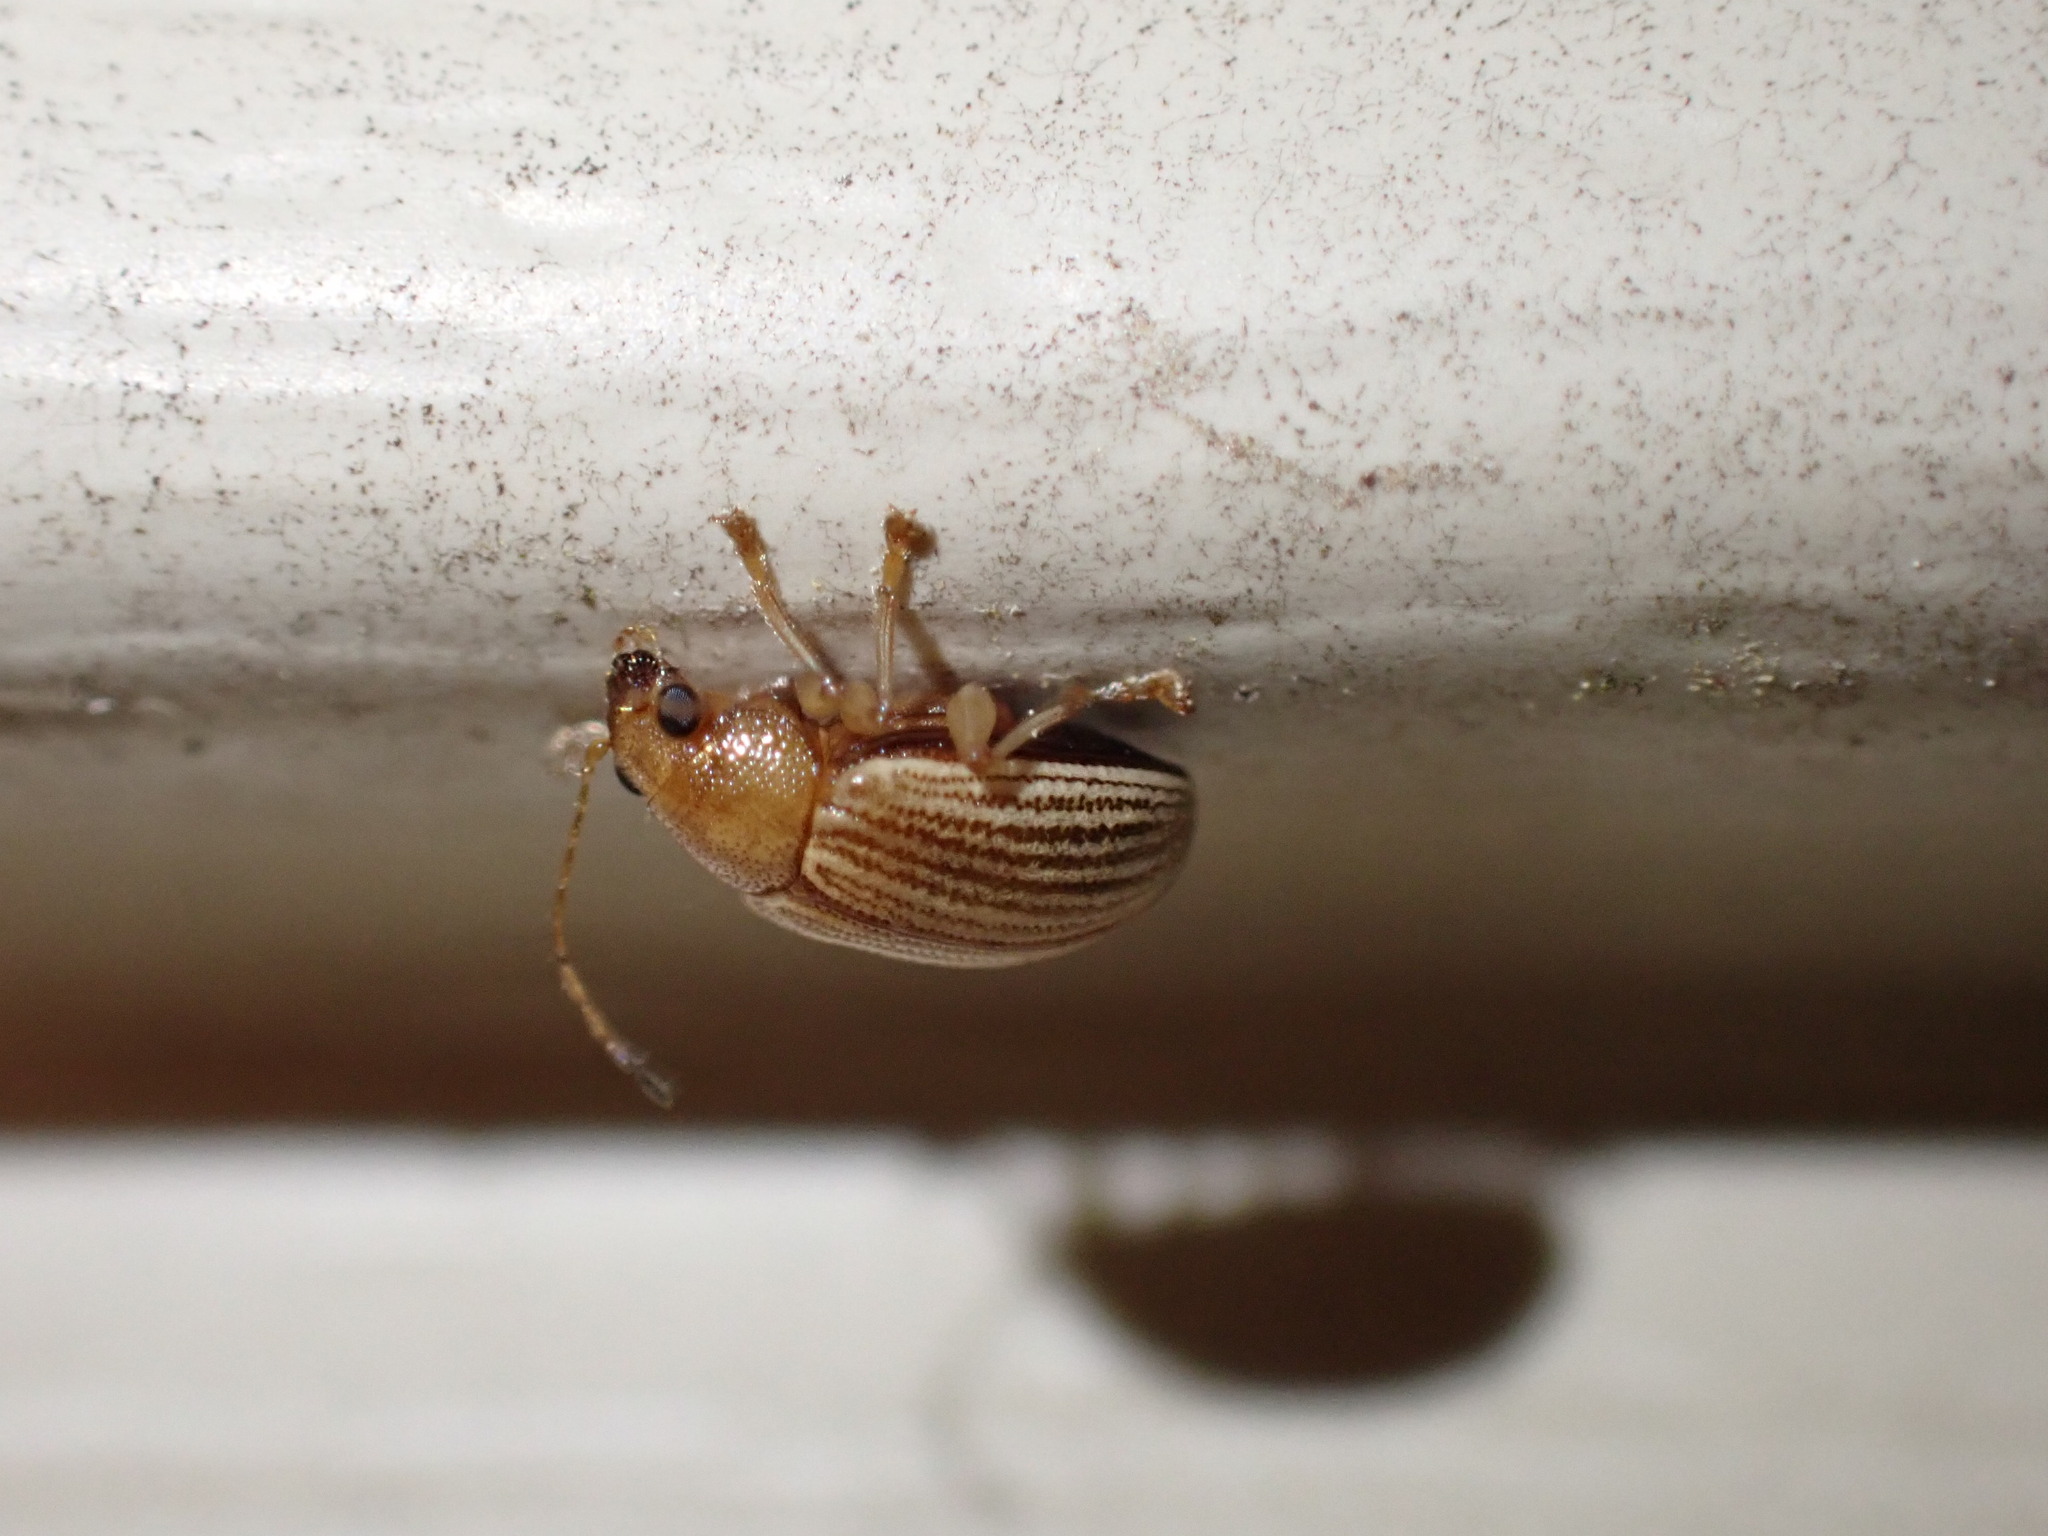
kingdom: Animalia
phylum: Arthropoda
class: Insecta
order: Coleoptera
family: Chrysomelidae
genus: Colaspis
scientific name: Colaspis brunnea
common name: Grape colaspis
